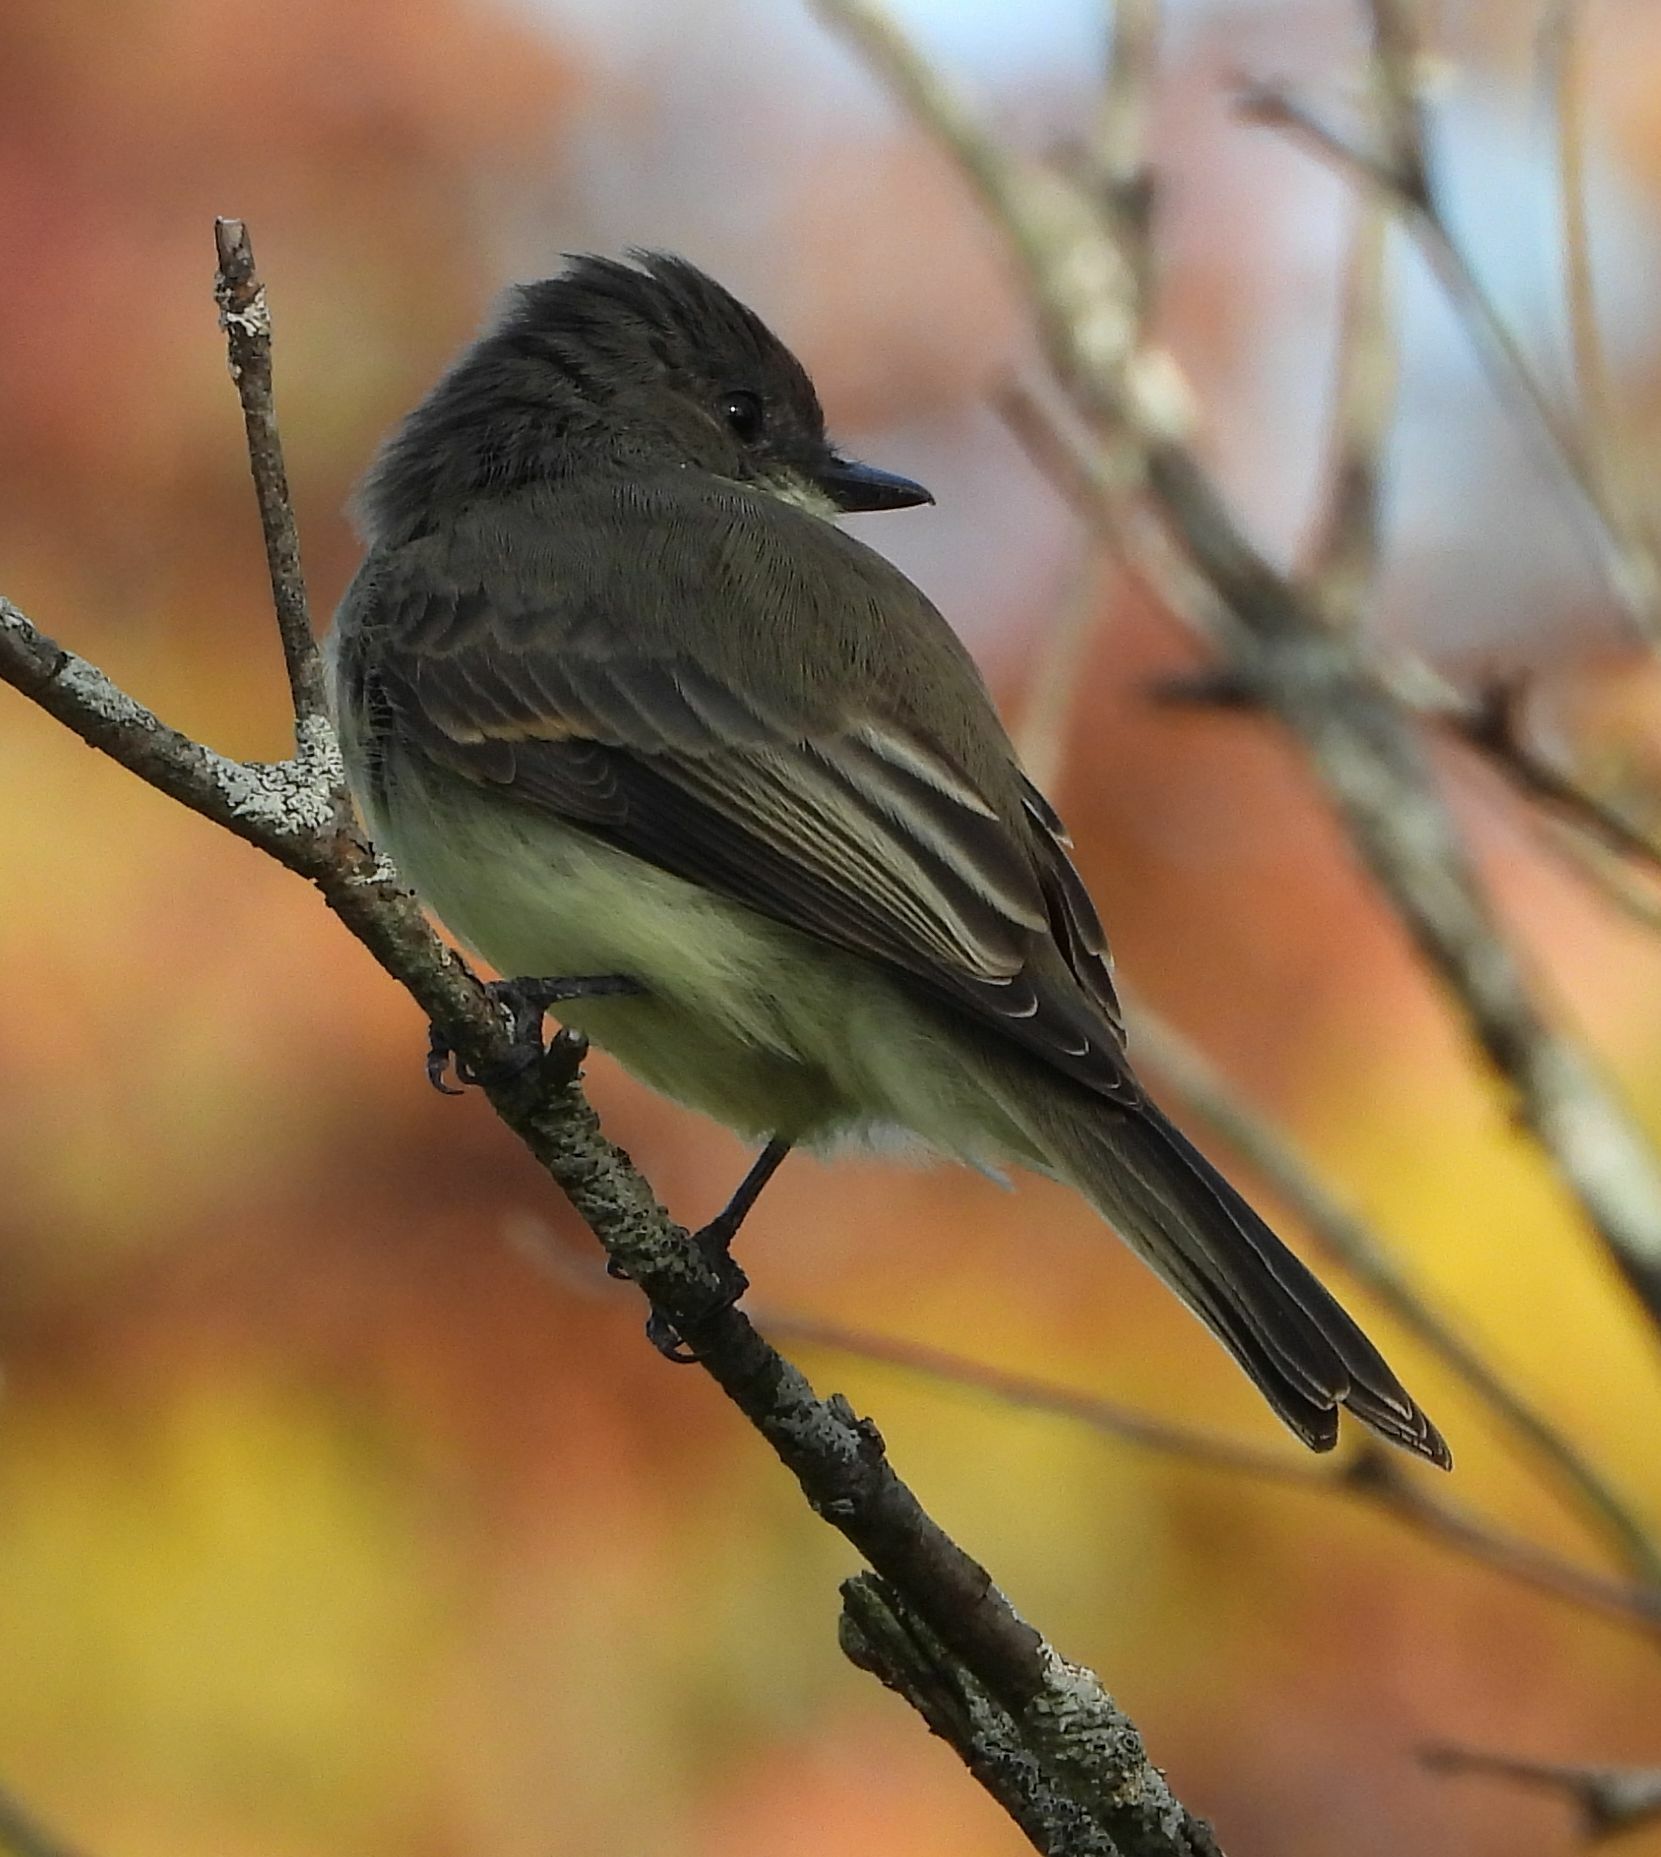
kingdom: Animalia
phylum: Chordata
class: Aves
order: Passeriformes
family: Tyrannidae
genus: Sayornis
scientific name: Sayornis phoebe
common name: Eastern phoebe
